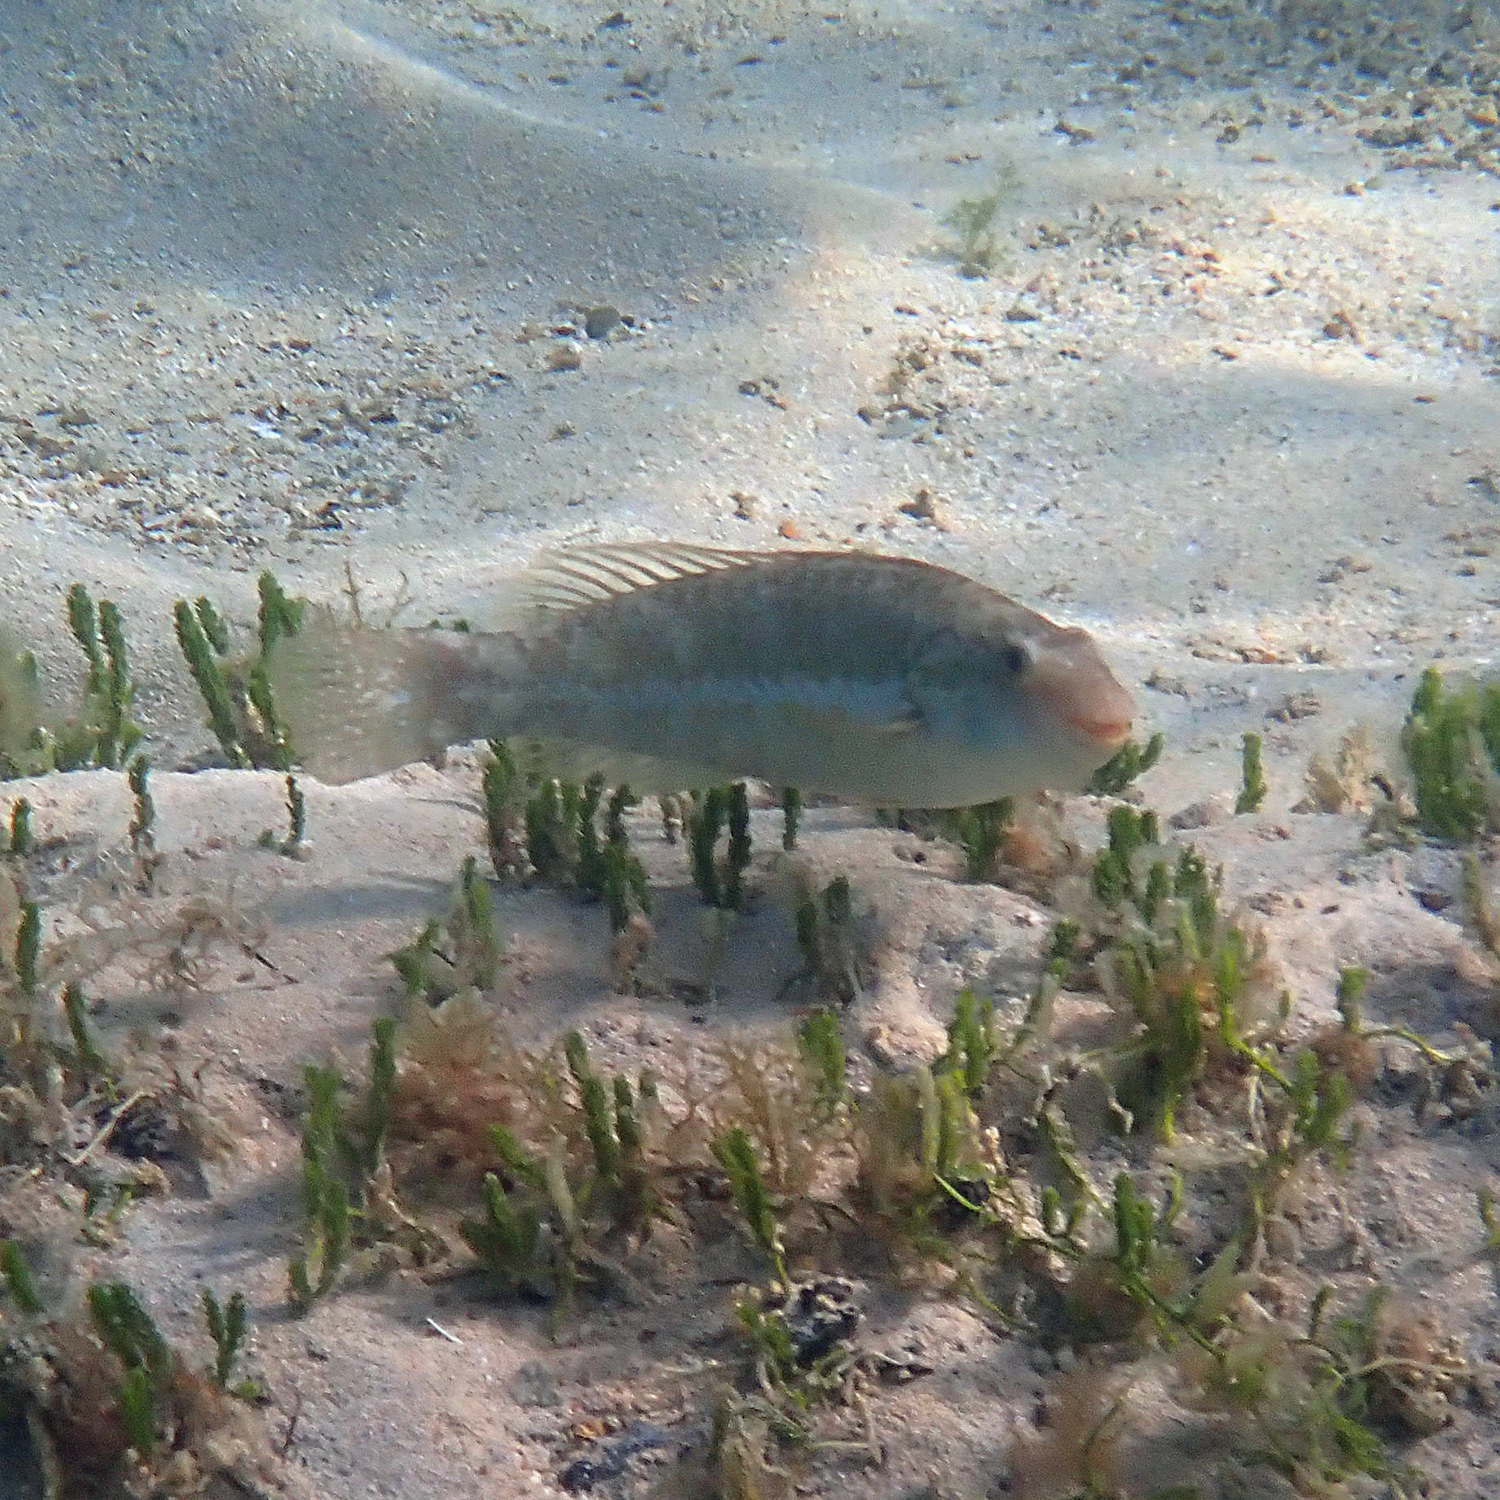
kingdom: Animalia
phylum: Chordata
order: Perciformes
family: Scaridae
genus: Leptoscarus
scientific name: Leptoscarus vaigiensis
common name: Marbled parrotfish
